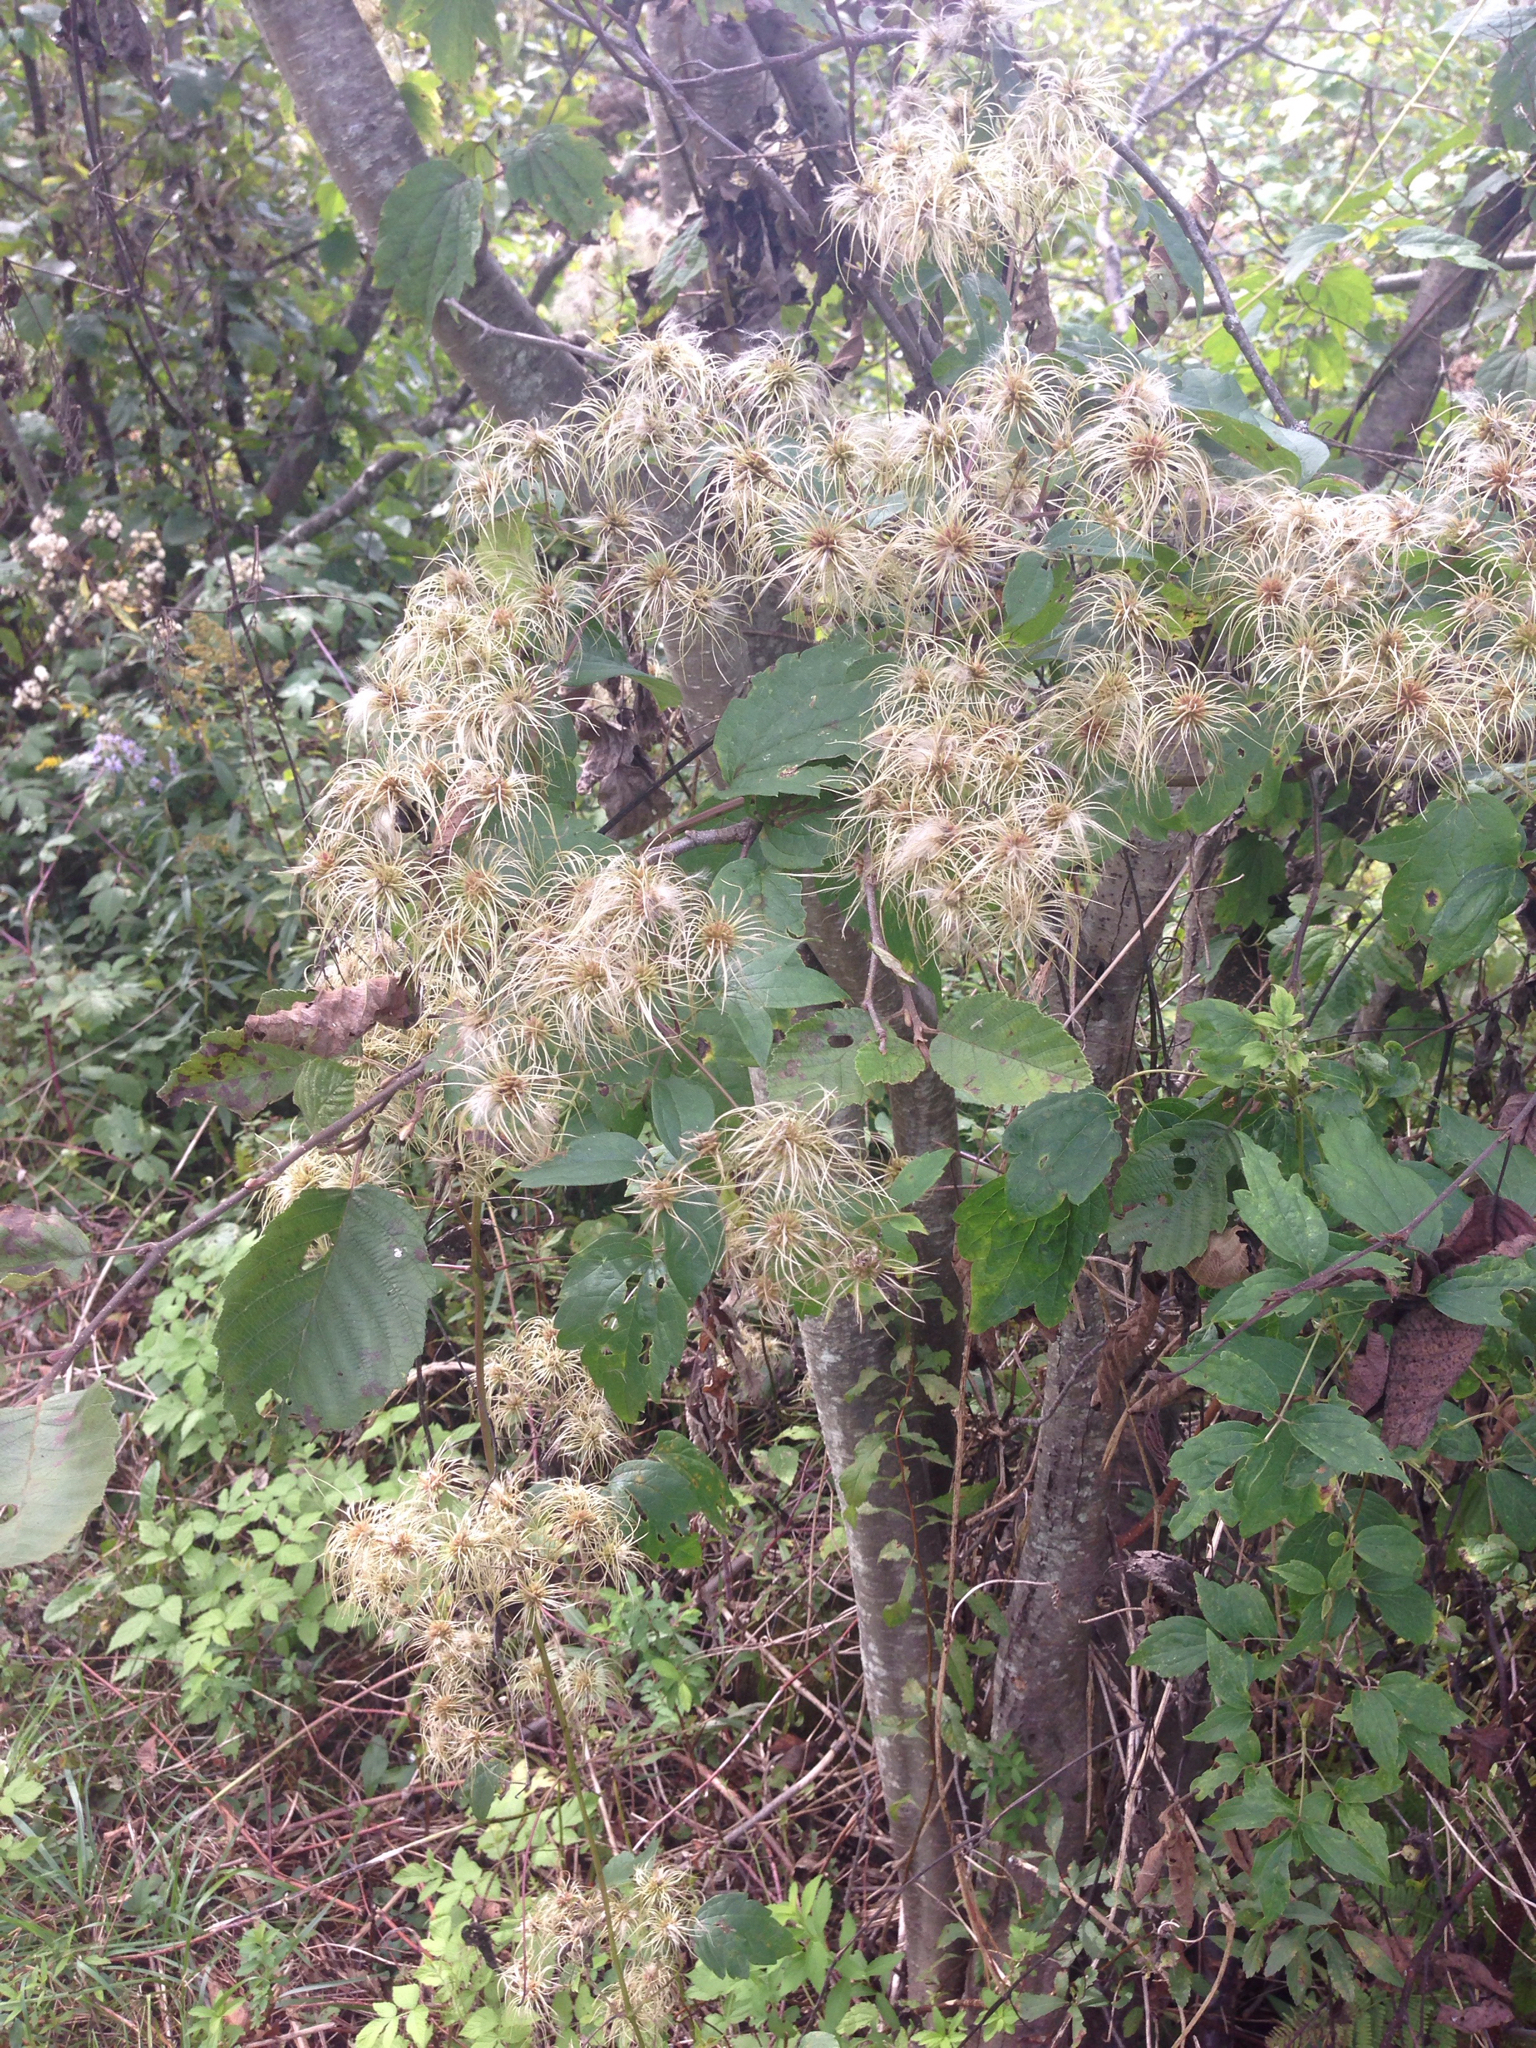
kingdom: Plantae
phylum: Tracheophyta
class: Magnoliopsida
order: Ranunculales
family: Ranunculaceae
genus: Clematis
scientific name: Clematis virginiana
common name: Virgin's-bower
